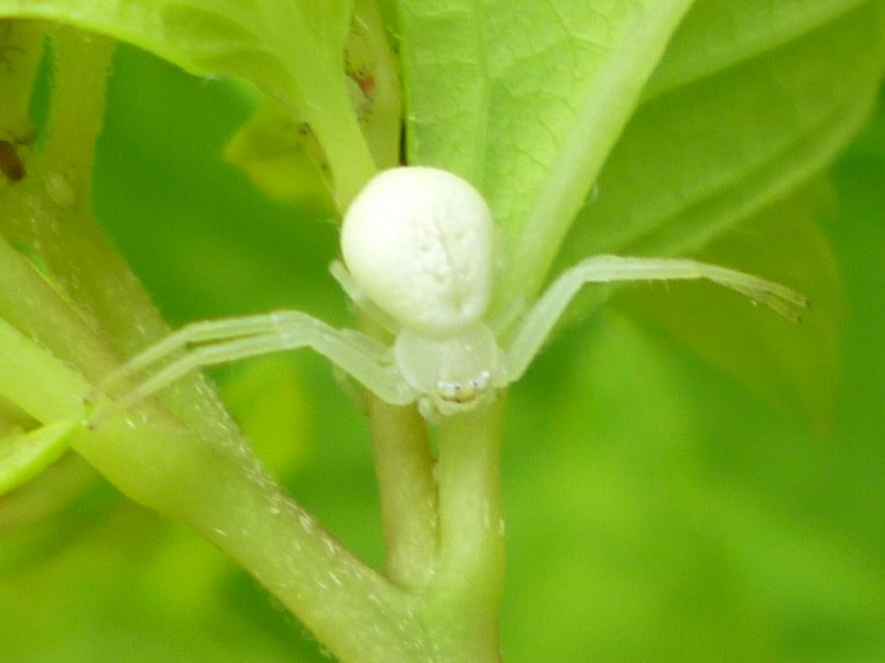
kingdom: Animalia
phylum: Arthropoda
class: Arachnida
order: Araneae
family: Thomisidae
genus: Misumessus
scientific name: Misumessus oblongus
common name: American green crab spider
